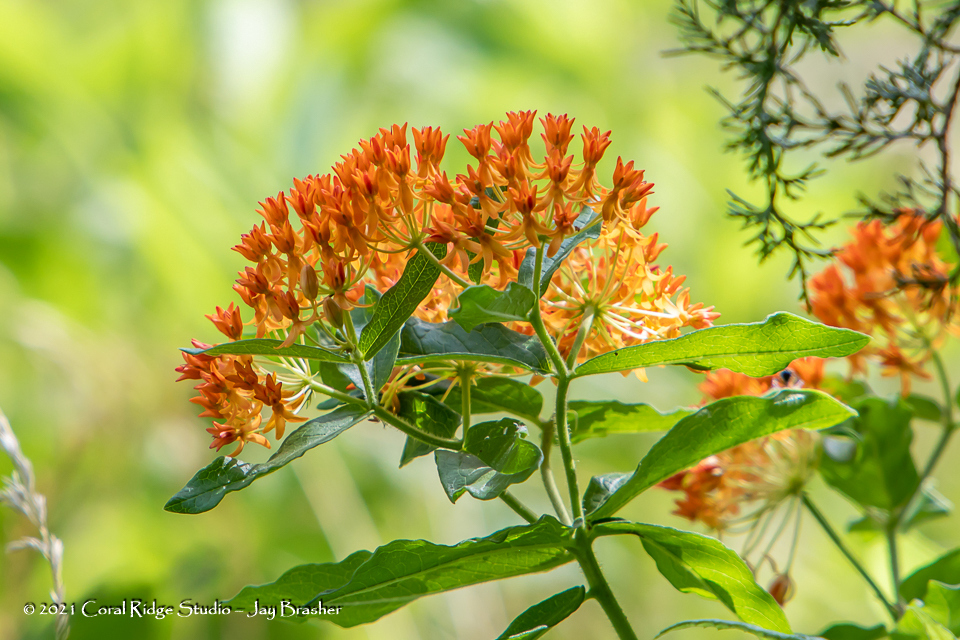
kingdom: Plantae
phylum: Tracheophyta
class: Magnoliopsida
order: Gentianales
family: Apocynaceae
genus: Asclepias
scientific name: Asclepias tuberosa
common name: Butterfly milkweed
